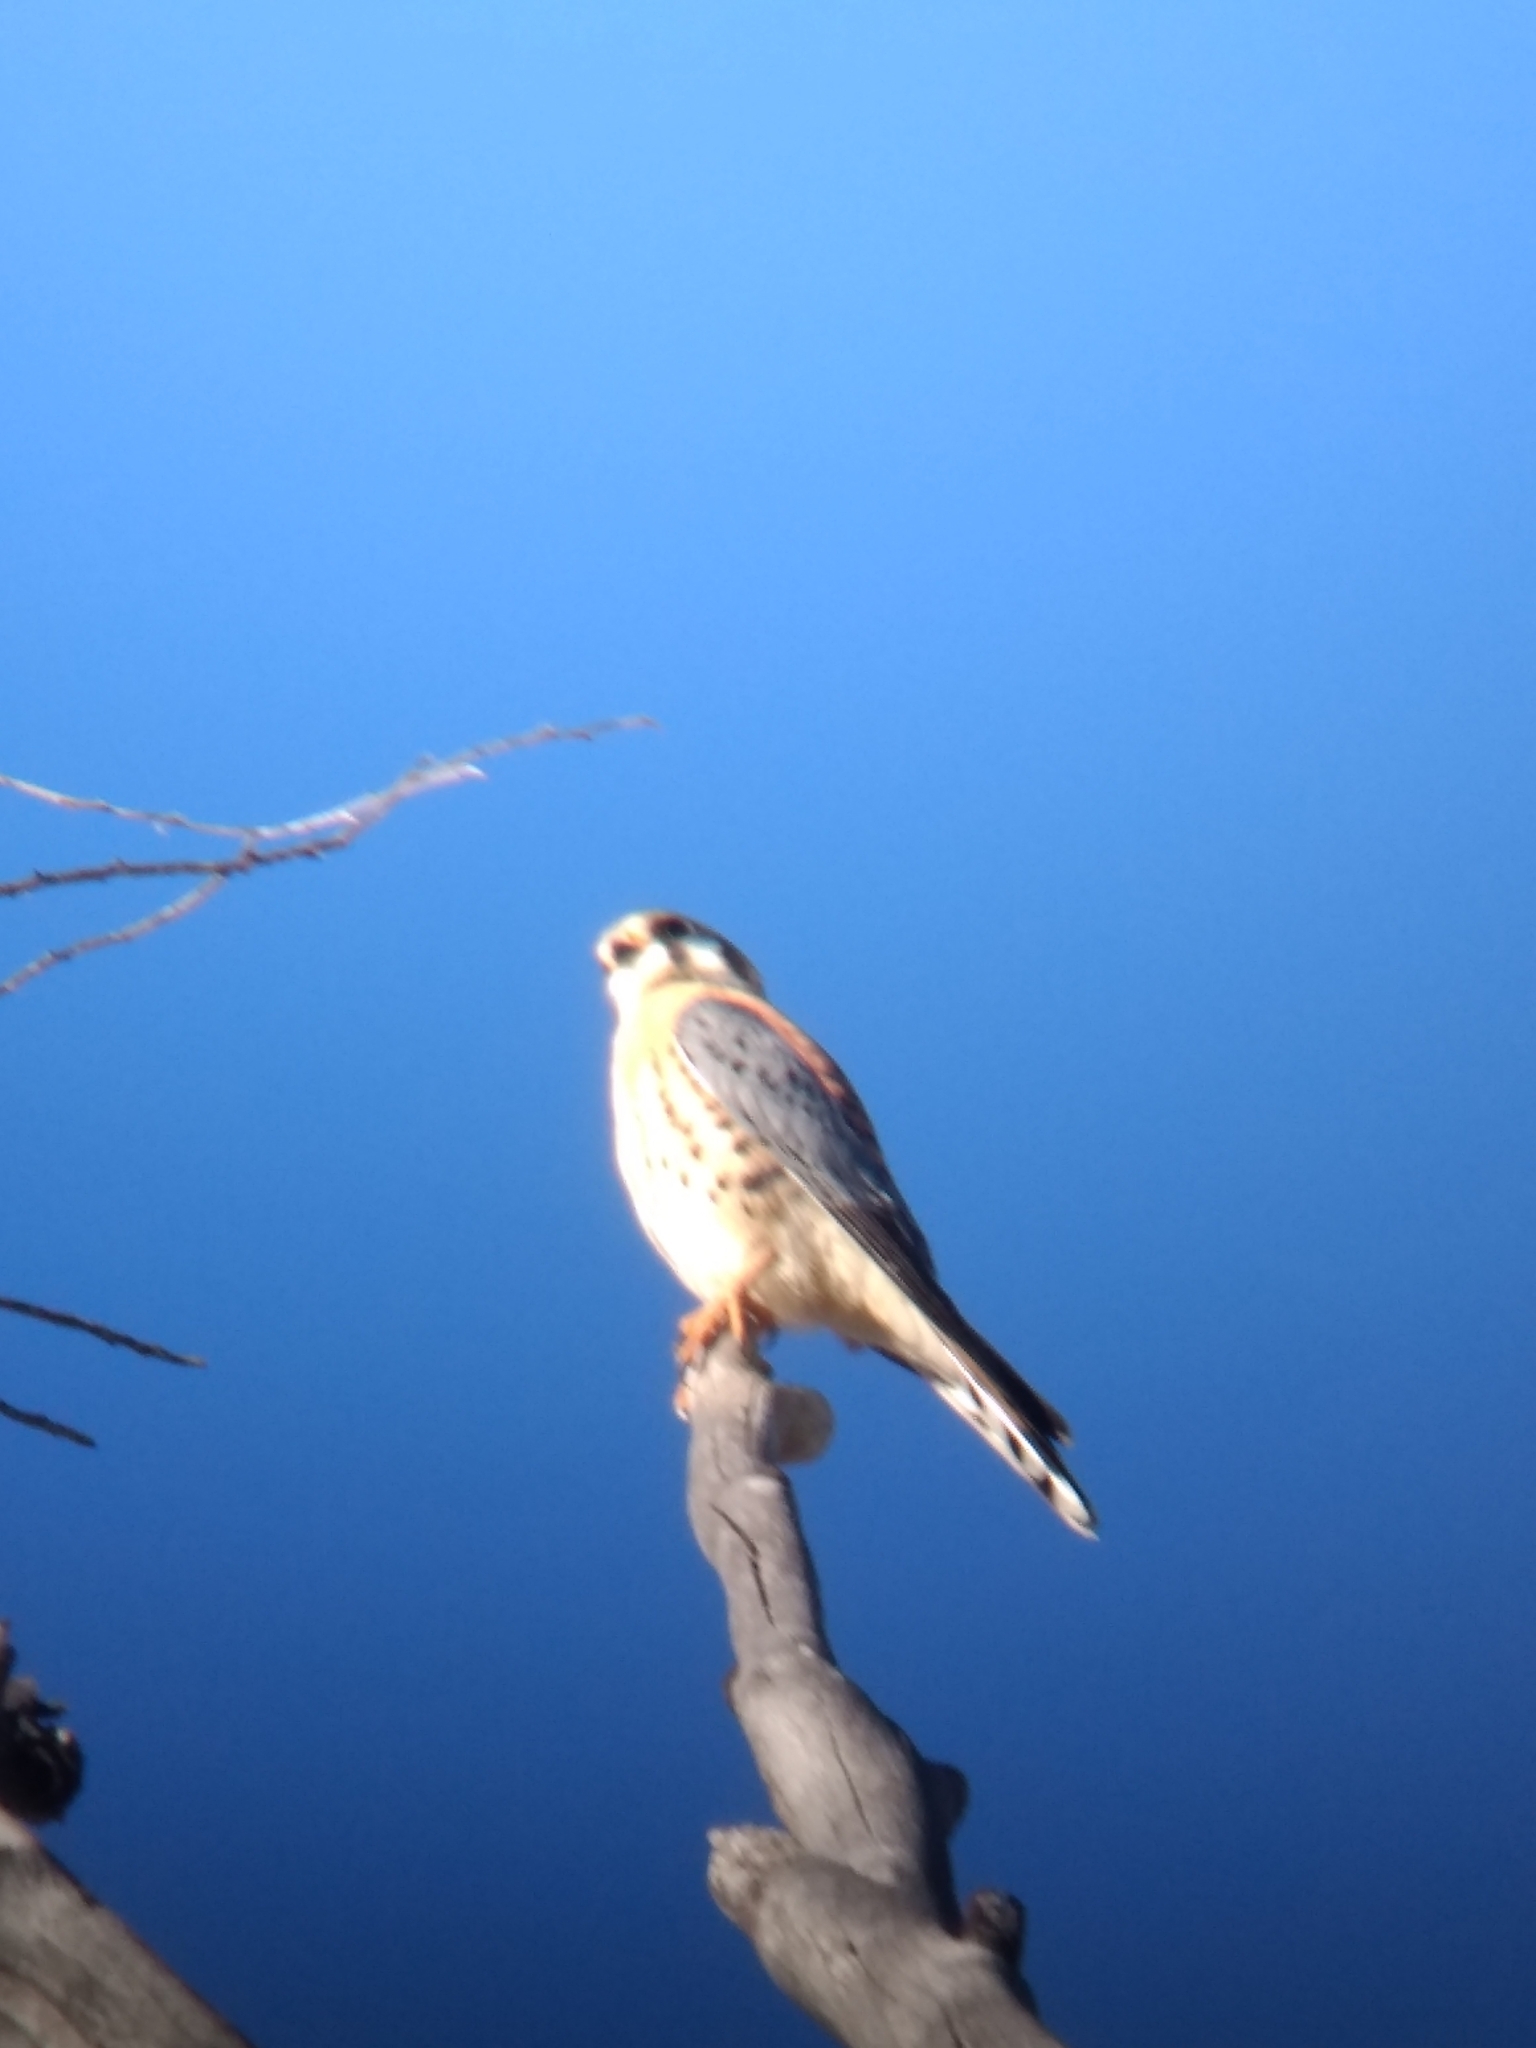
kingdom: Animalia
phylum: Chordata
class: Aves
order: Falconiformes
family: Falconidae
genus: Falco
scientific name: Falco sparverius
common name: American kestrel
